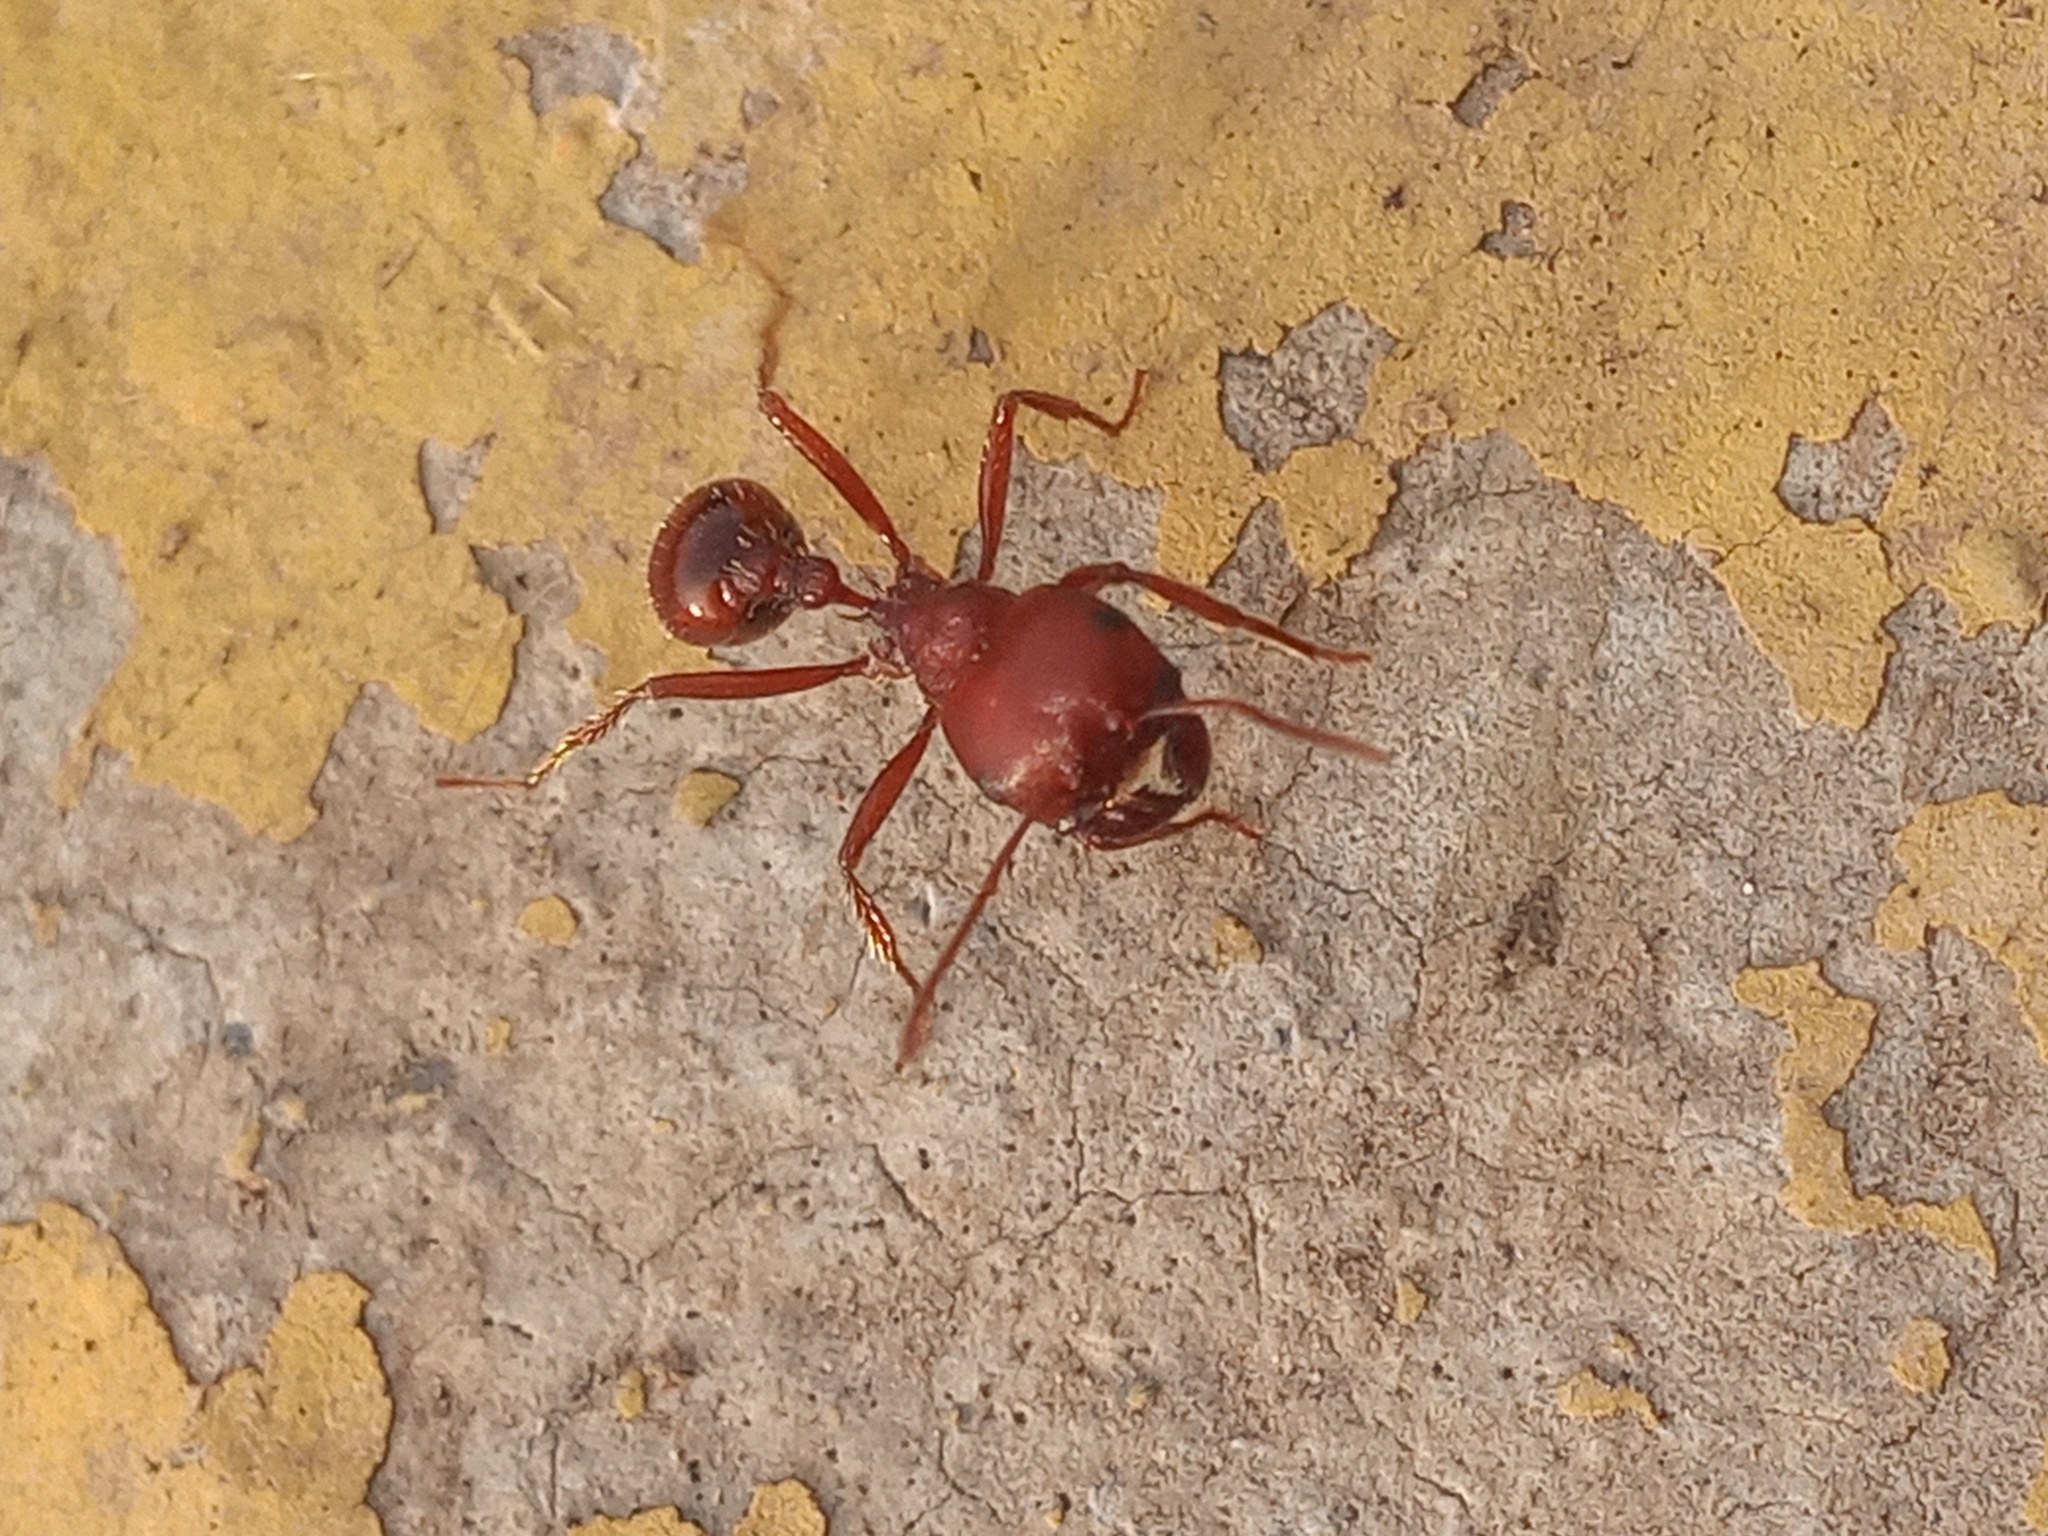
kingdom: Animalia
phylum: Arthropoda
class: Insecta
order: Hymenoptera
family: Formicidae
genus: Pogonomyrmex
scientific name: Pogonomyrmex barbatus
